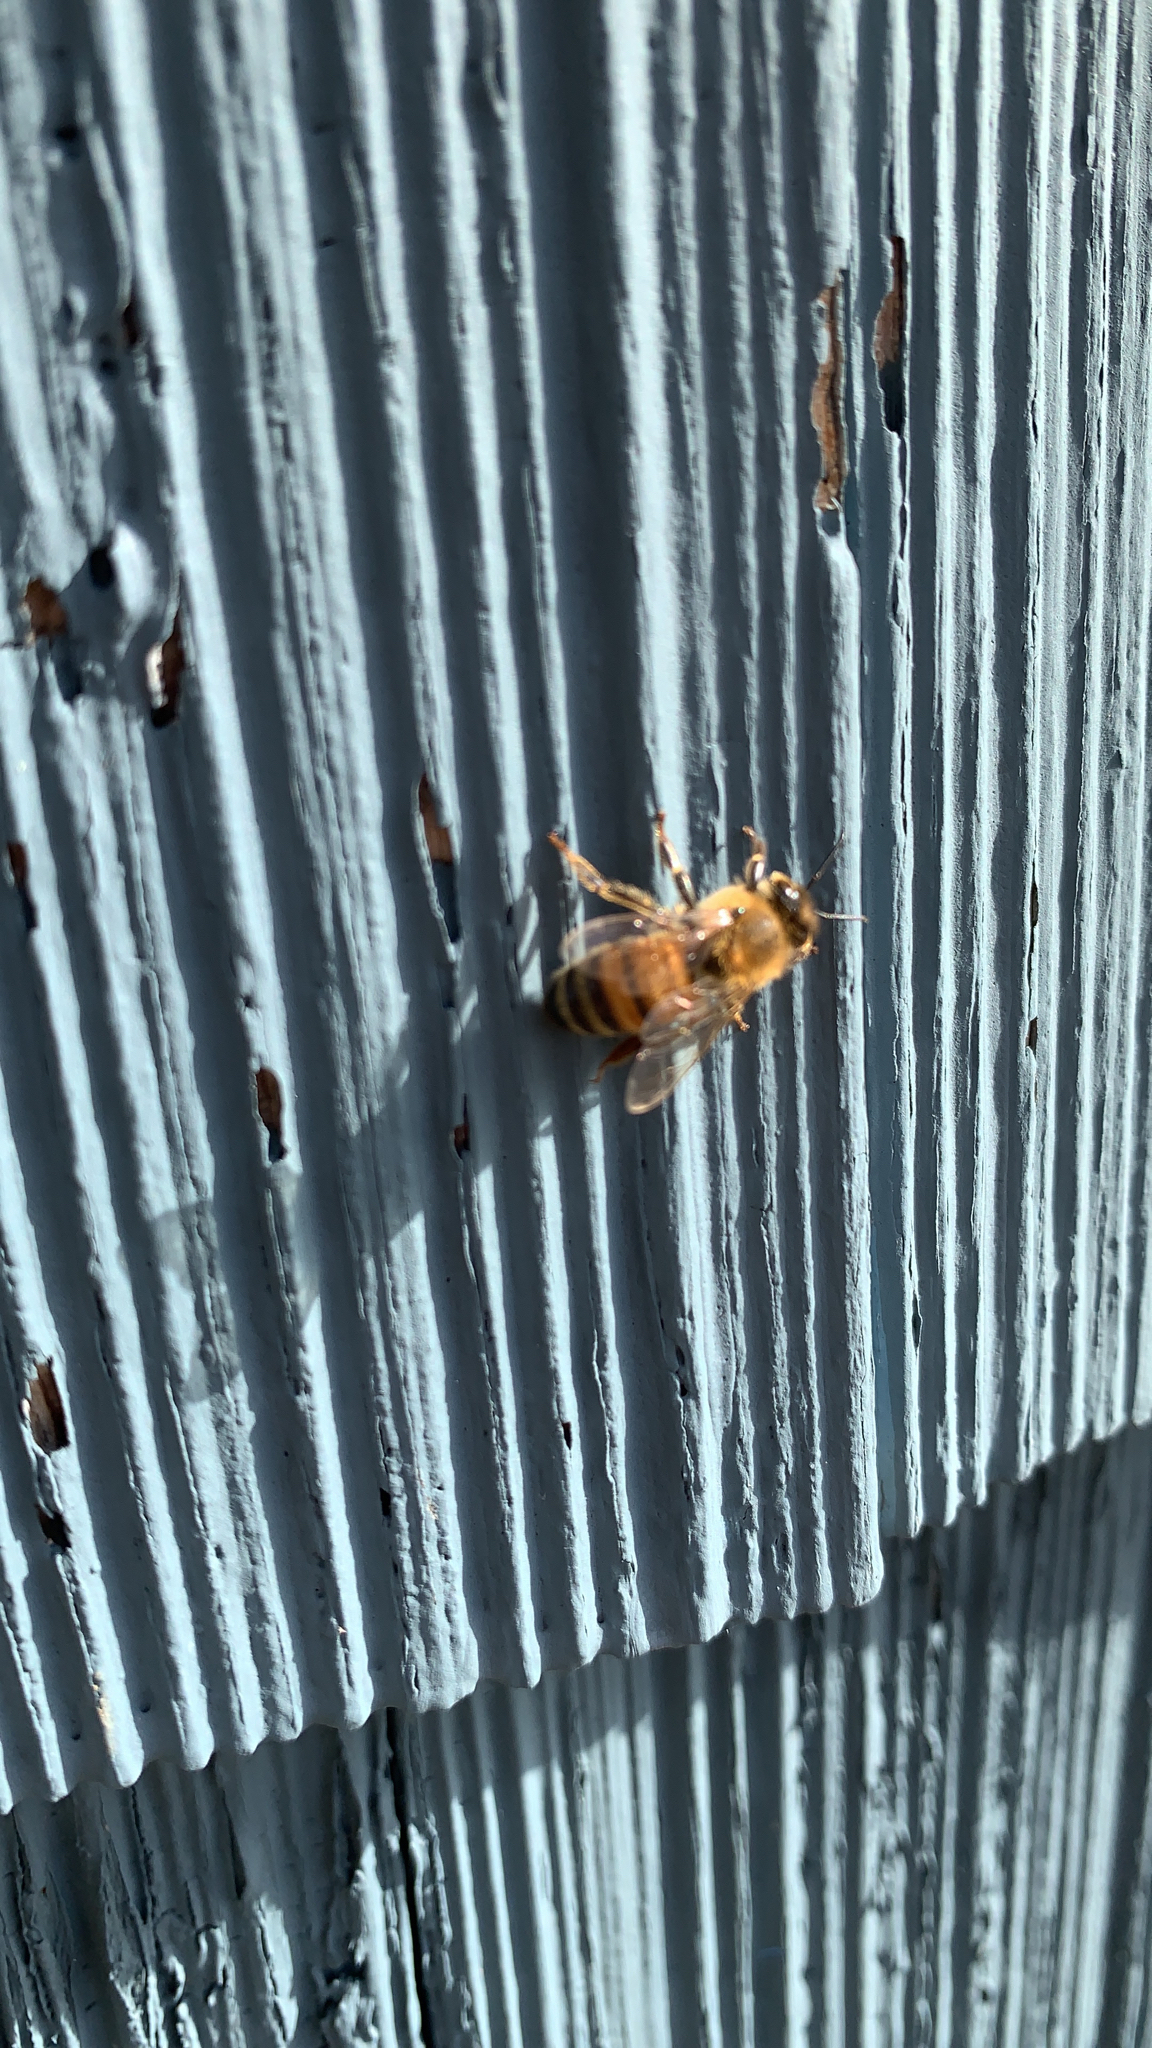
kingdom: Animalia
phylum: Arthropoda
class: Insecta
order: Hymenoptera
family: Apidae
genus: Apis
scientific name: Apis mellifera
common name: Honey bee
